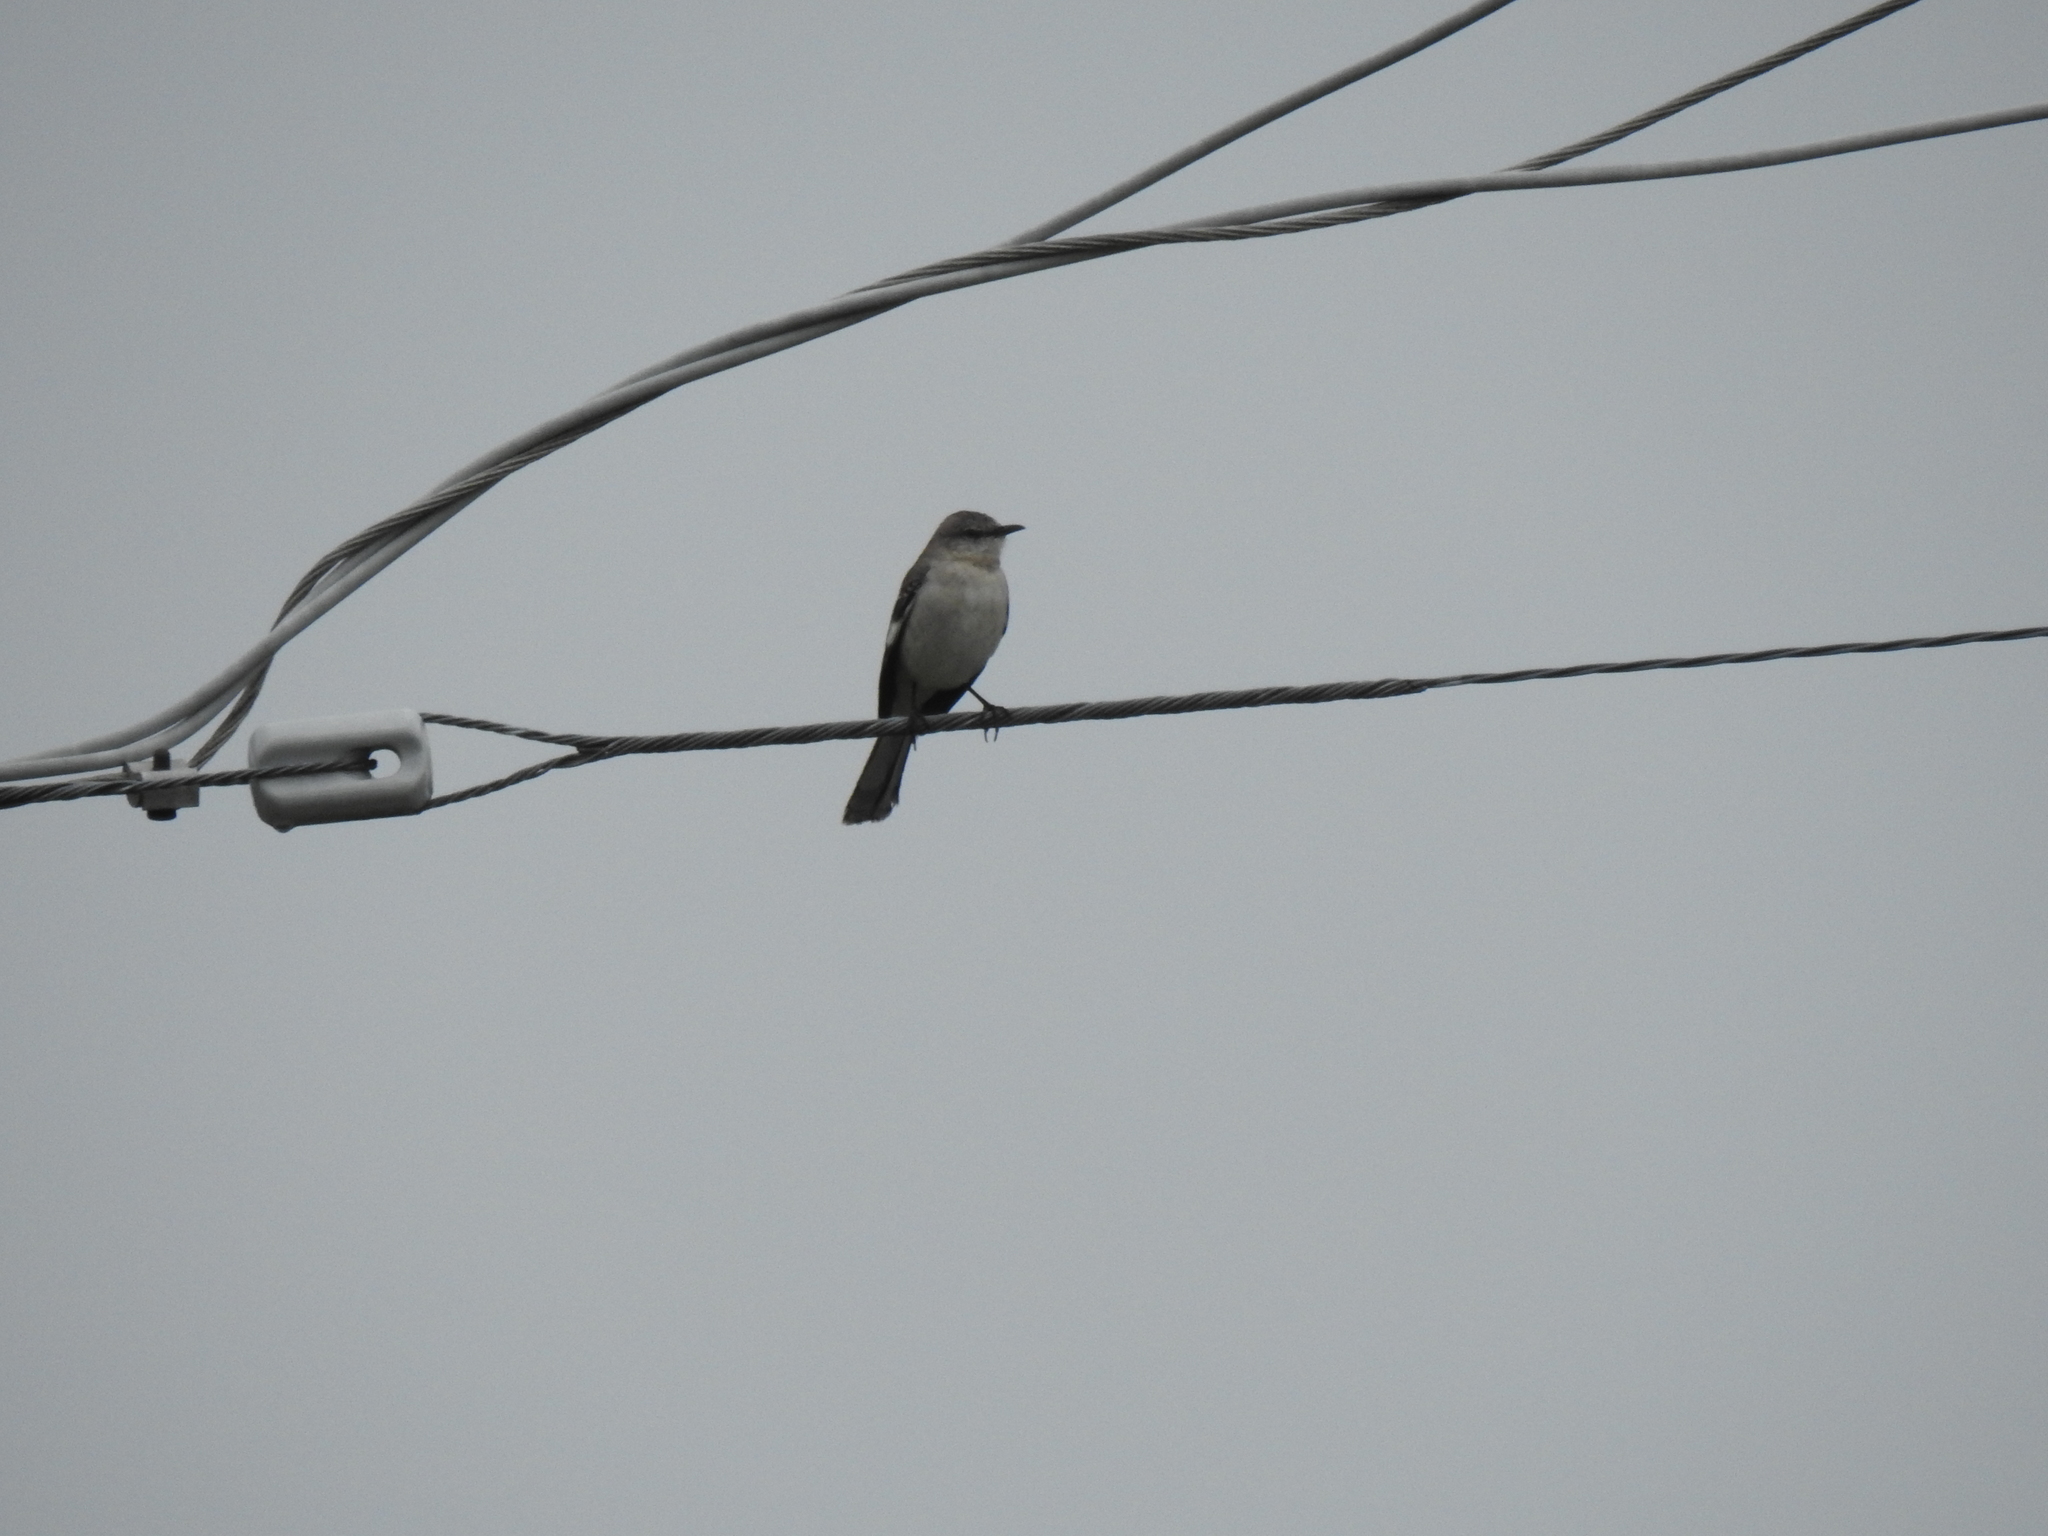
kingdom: Animalia
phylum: Chordata
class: Aves
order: Passeriformes
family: Mimidae
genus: Mimus
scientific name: Mimus polyglottos
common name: Northern mockingbird
